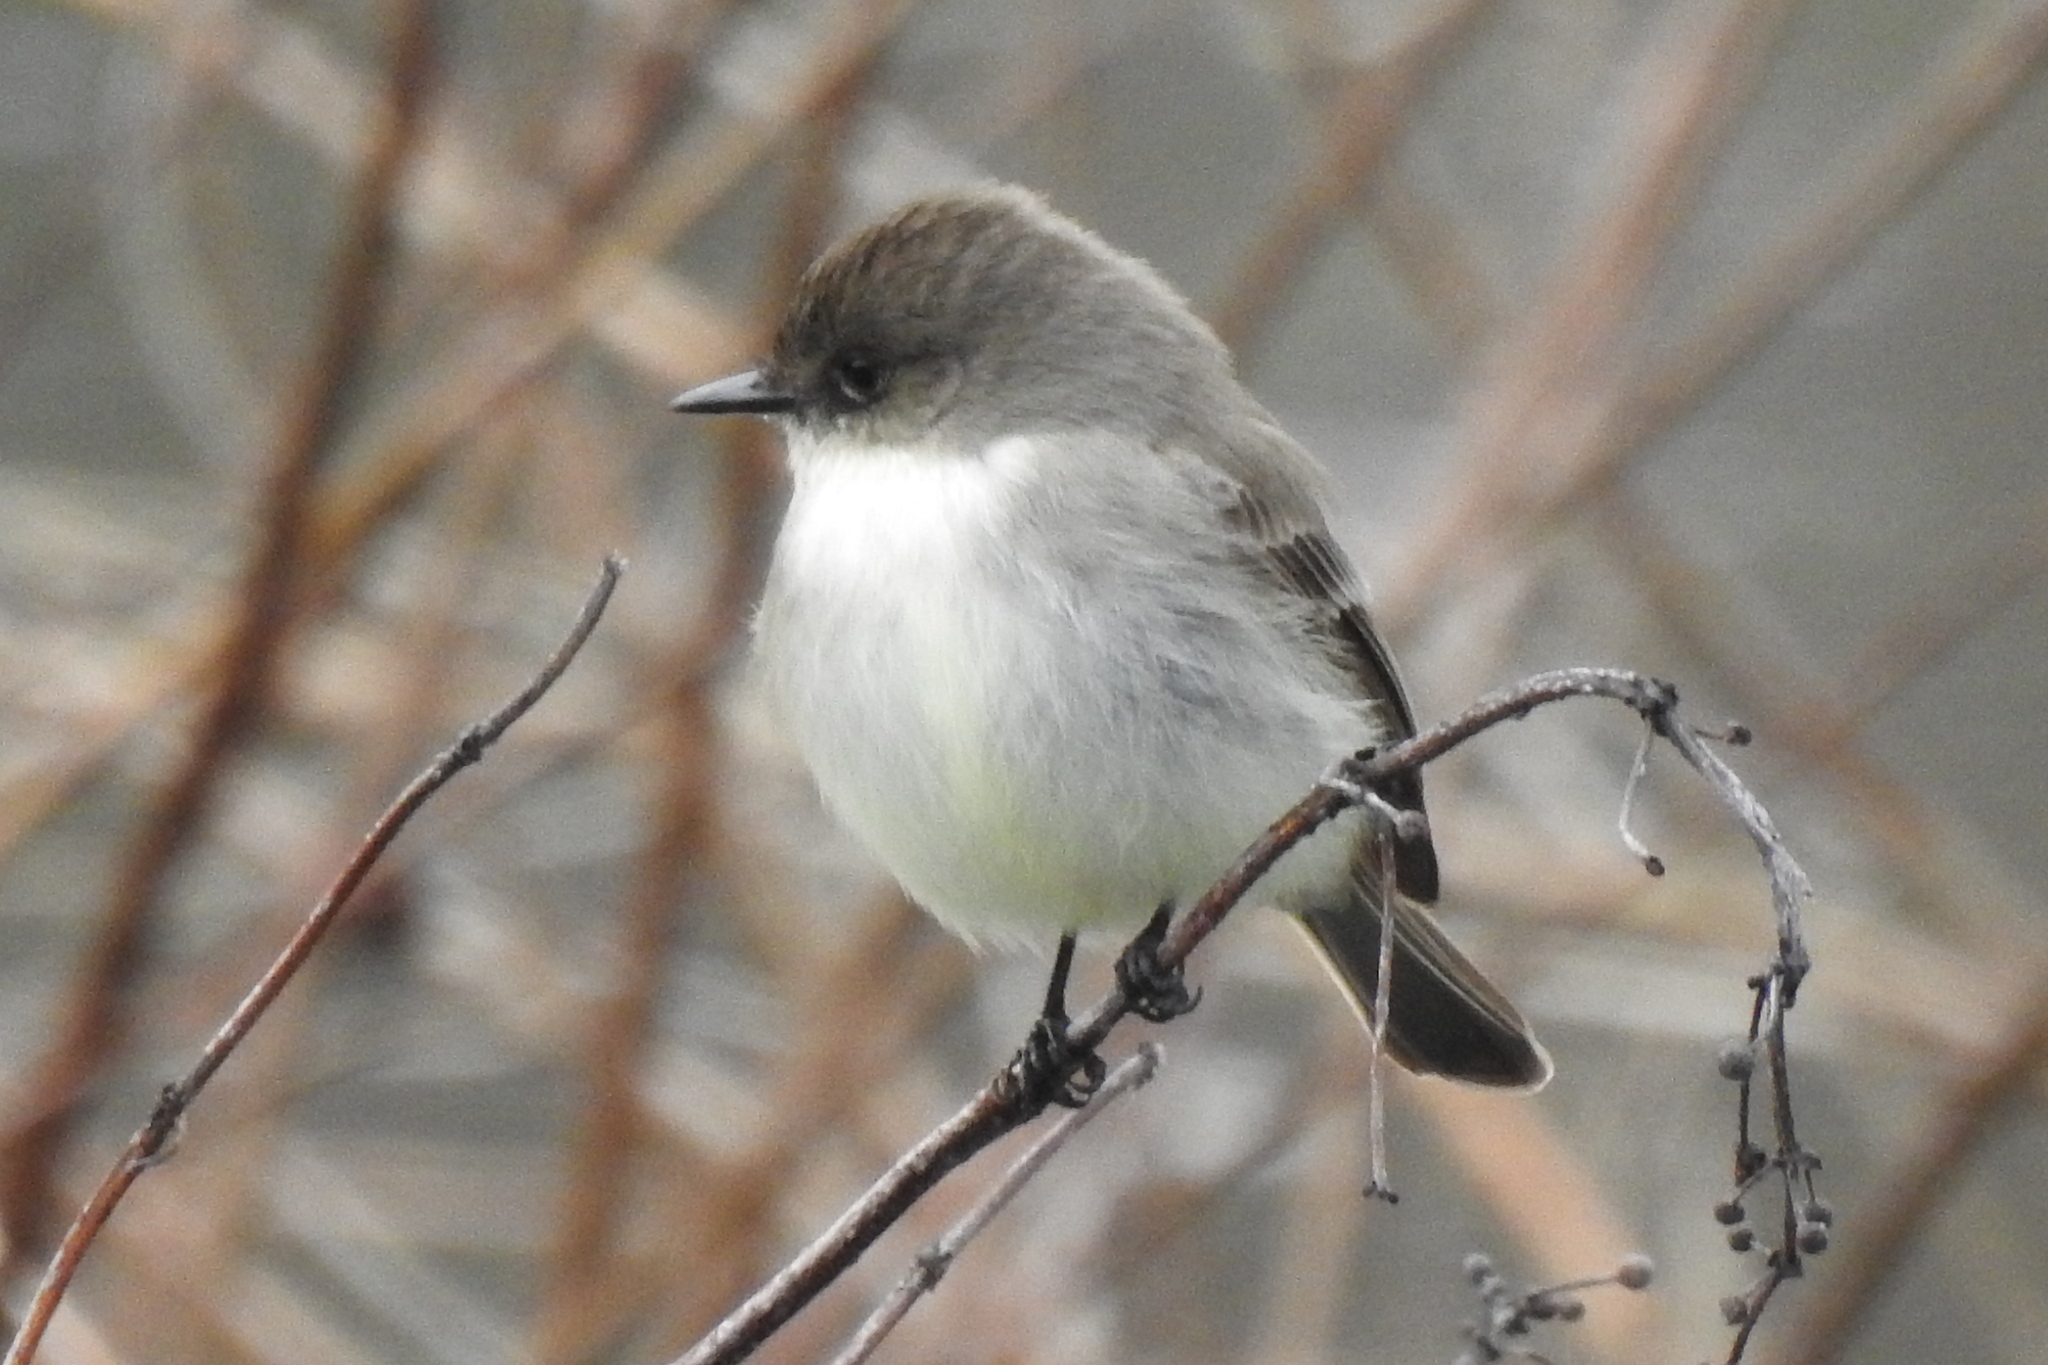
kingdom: Animalia
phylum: Chordata
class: Aves
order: Passeriformes
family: Tyrannidae
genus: Sayornis
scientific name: Sayornis phoebe
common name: Eastern phoebe
